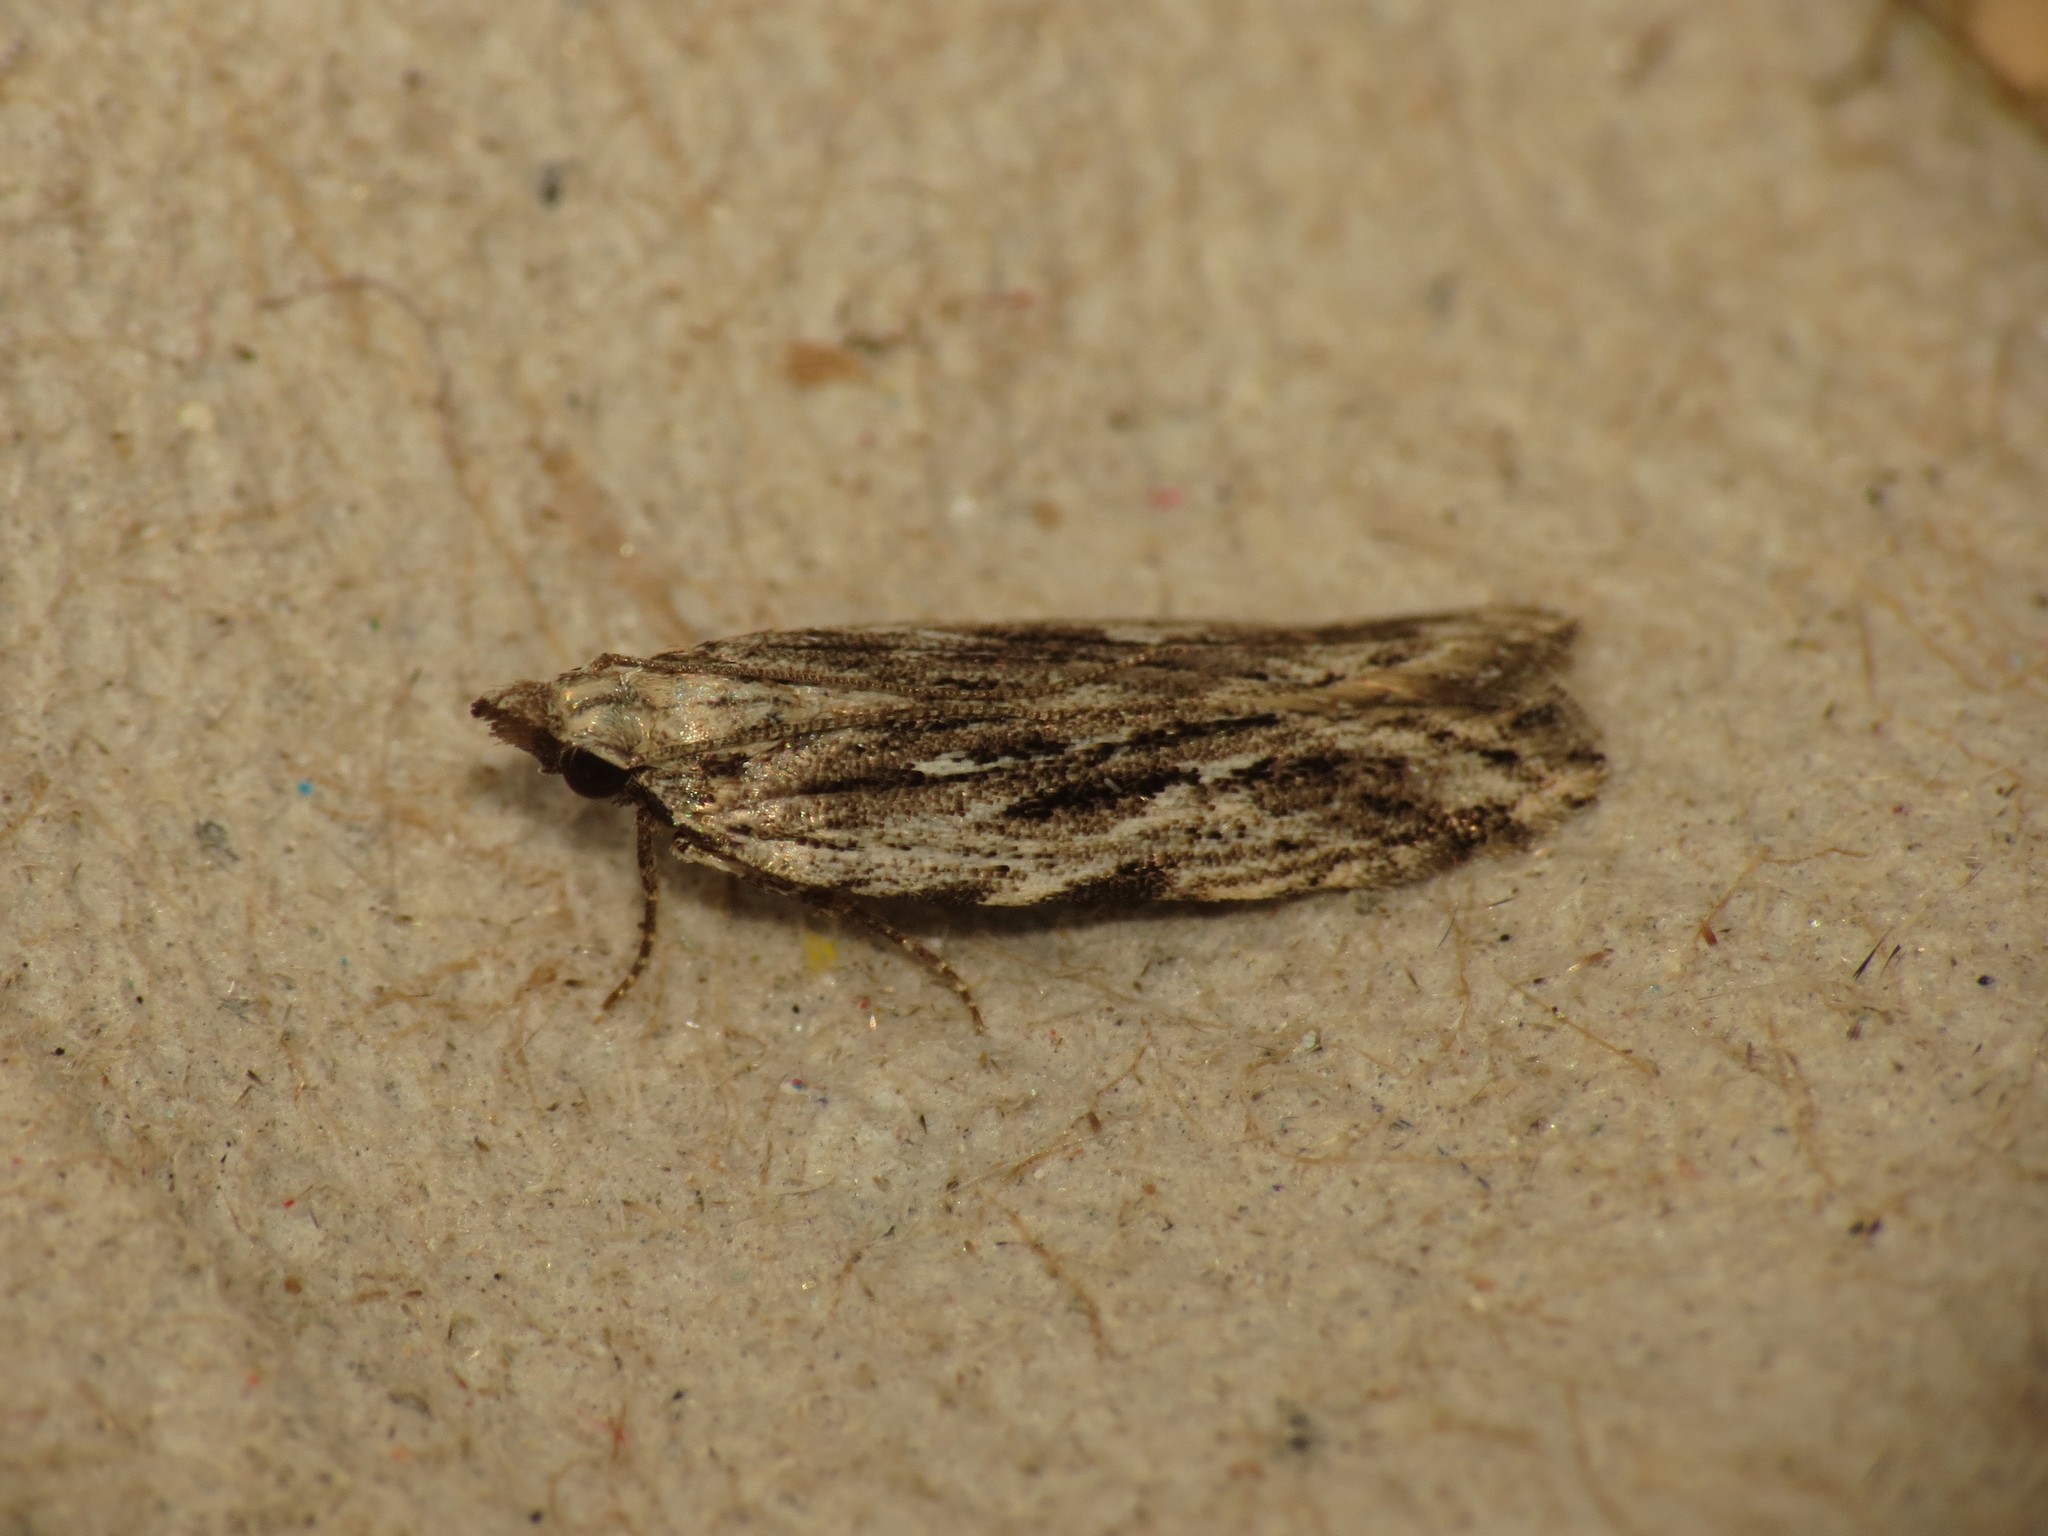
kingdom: Animalia
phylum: Arthropoda
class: Insecta
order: Lepidoptera
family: Gelechiidae
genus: Anarsia
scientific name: Anarsia innoxiella
